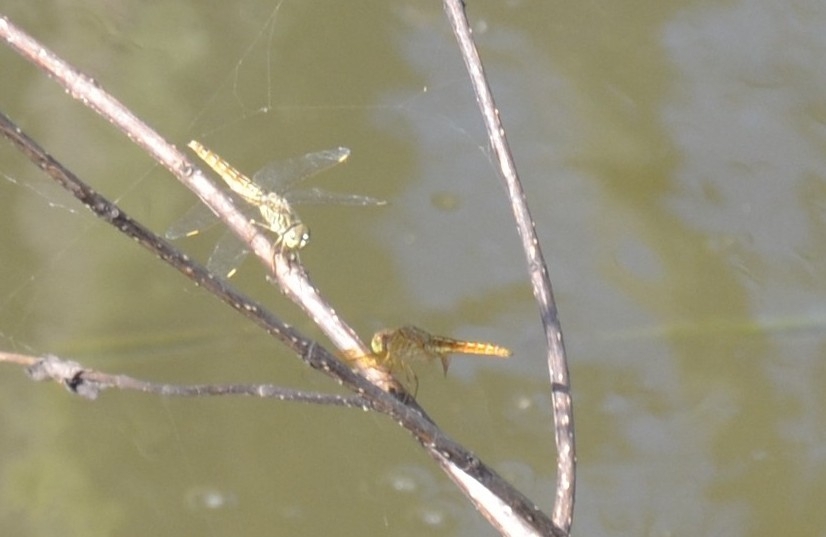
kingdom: Animalia
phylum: Arthropoda
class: Insecta
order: Odonata
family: Libellulidae
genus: Brachythemis
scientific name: Brachythemis contaminata
